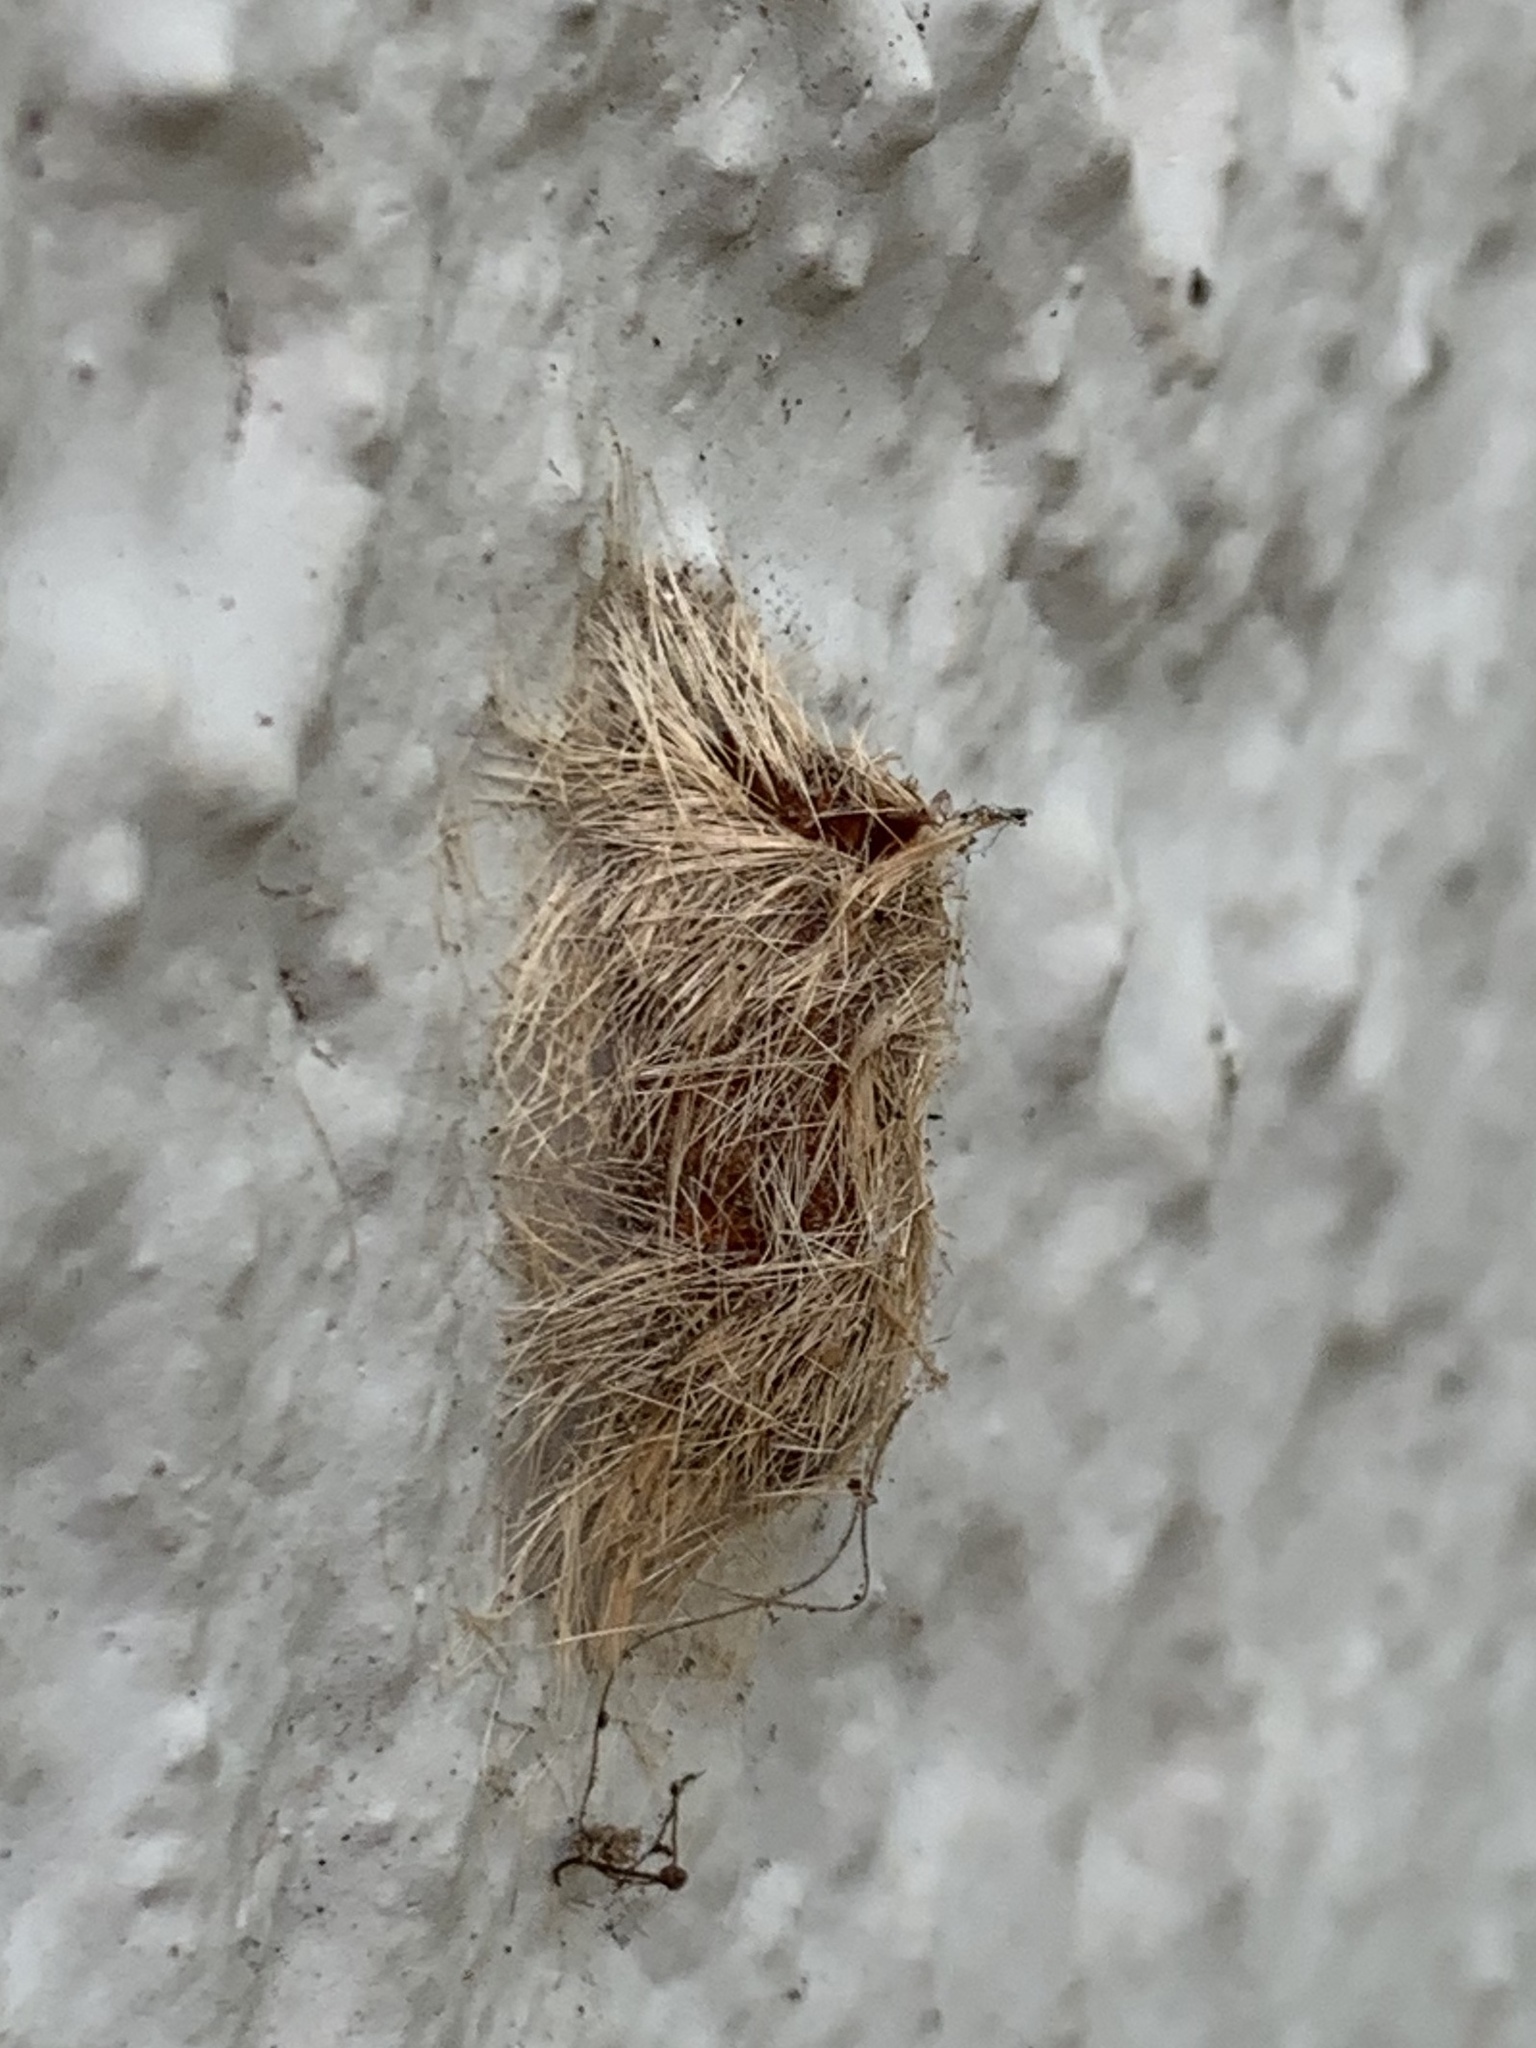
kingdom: Animalia
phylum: Arthropoda
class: Insecta
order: Lepidoptera
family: Erebidae
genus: Lymire
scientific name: Lymire edwardsii
